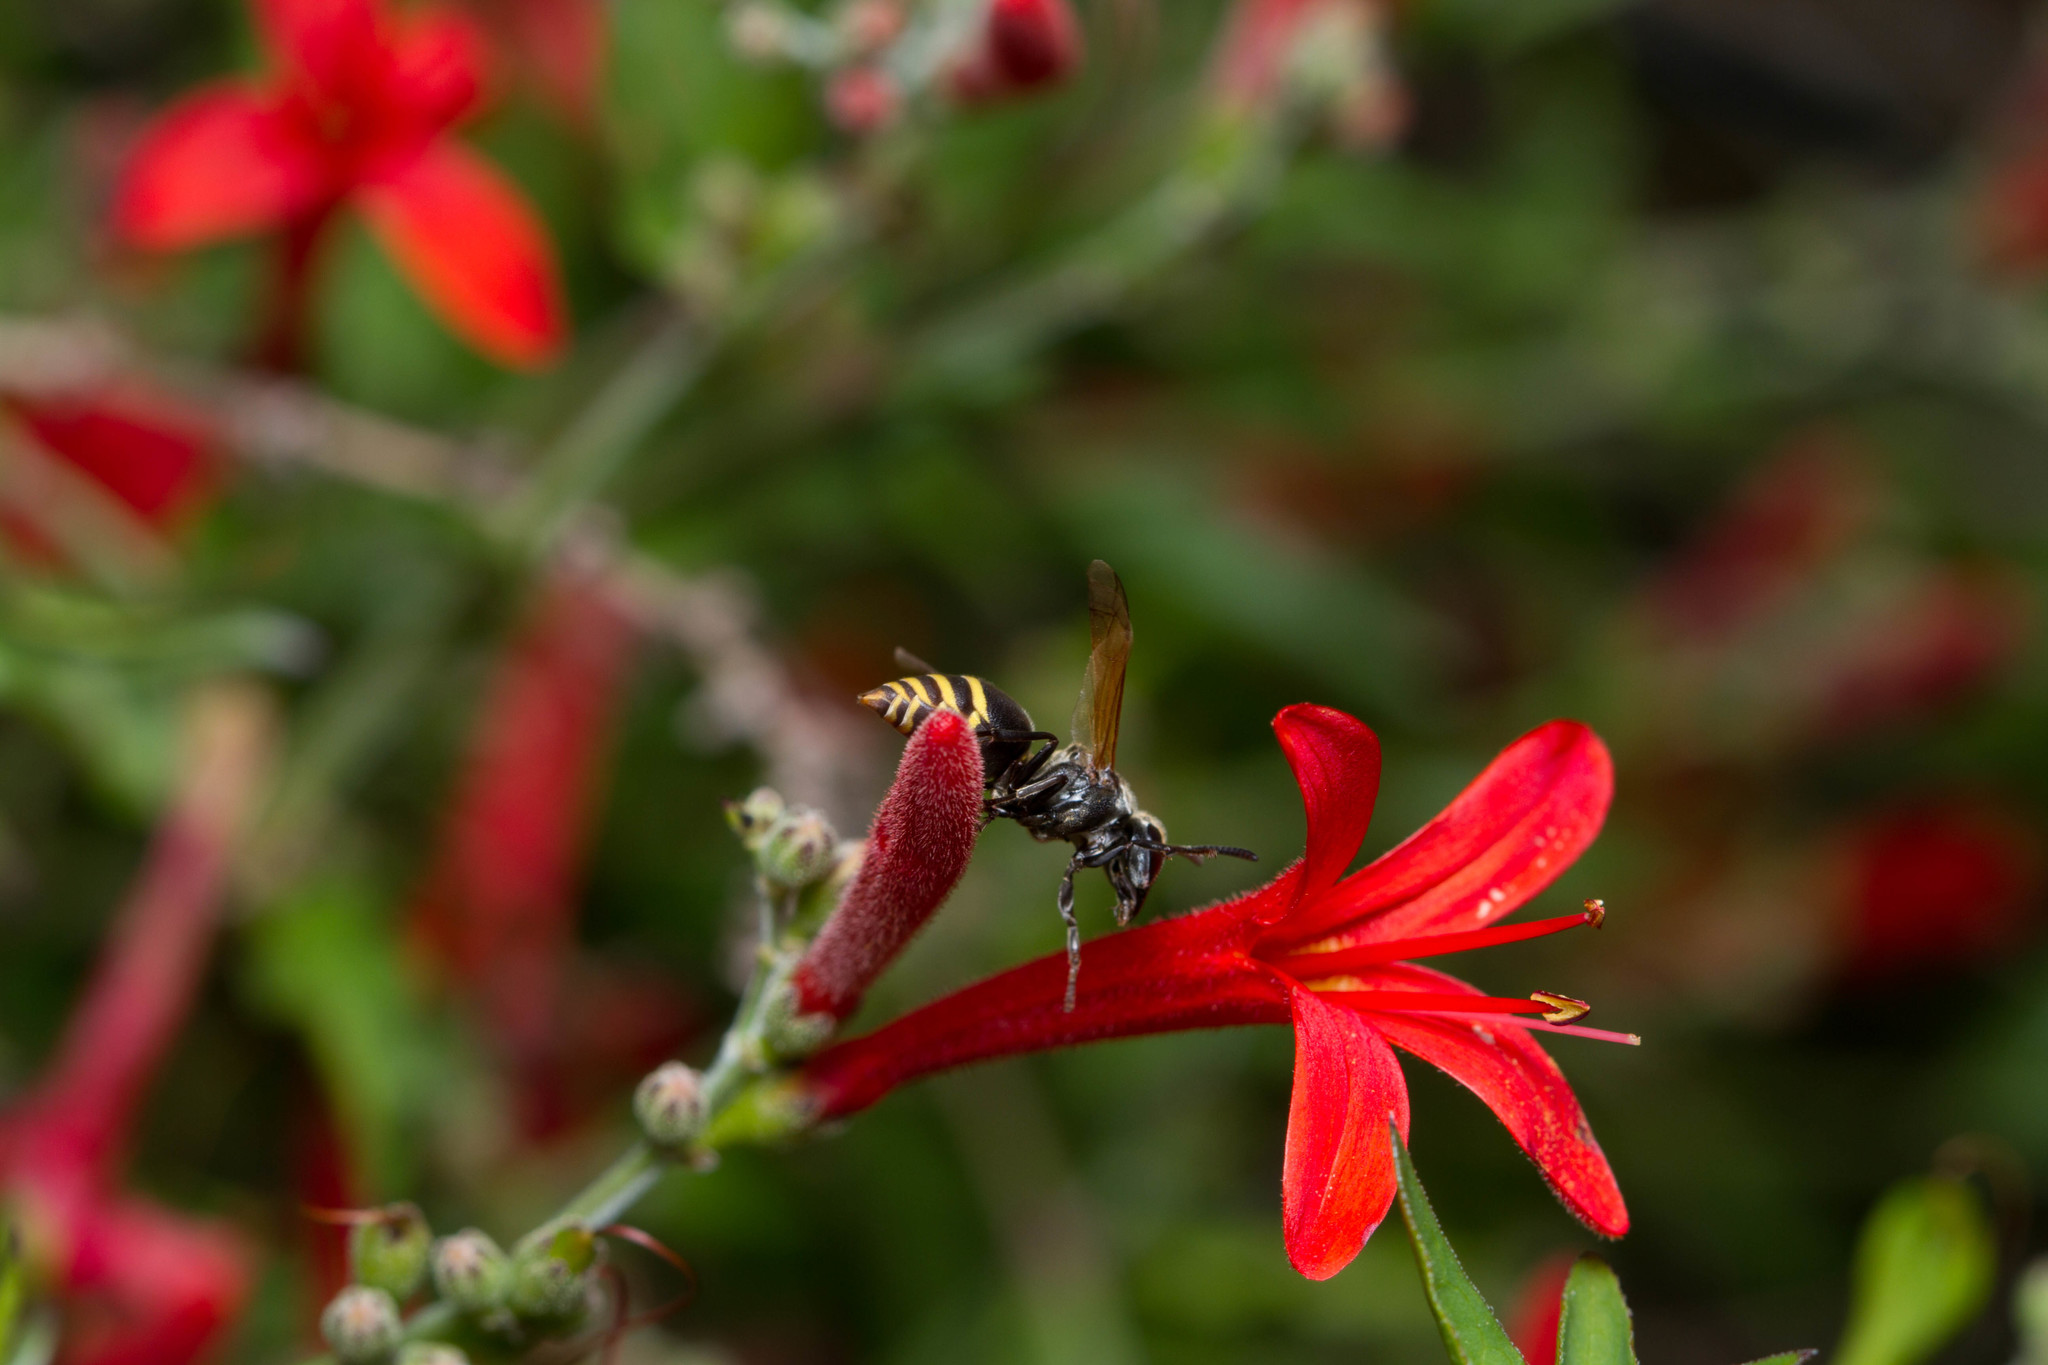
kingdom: Animalia
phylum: Arthropoda
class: Insecta
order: Hymenoptera
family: Vespidae
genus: Brachygastra
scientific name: Brachygastra mellifica
